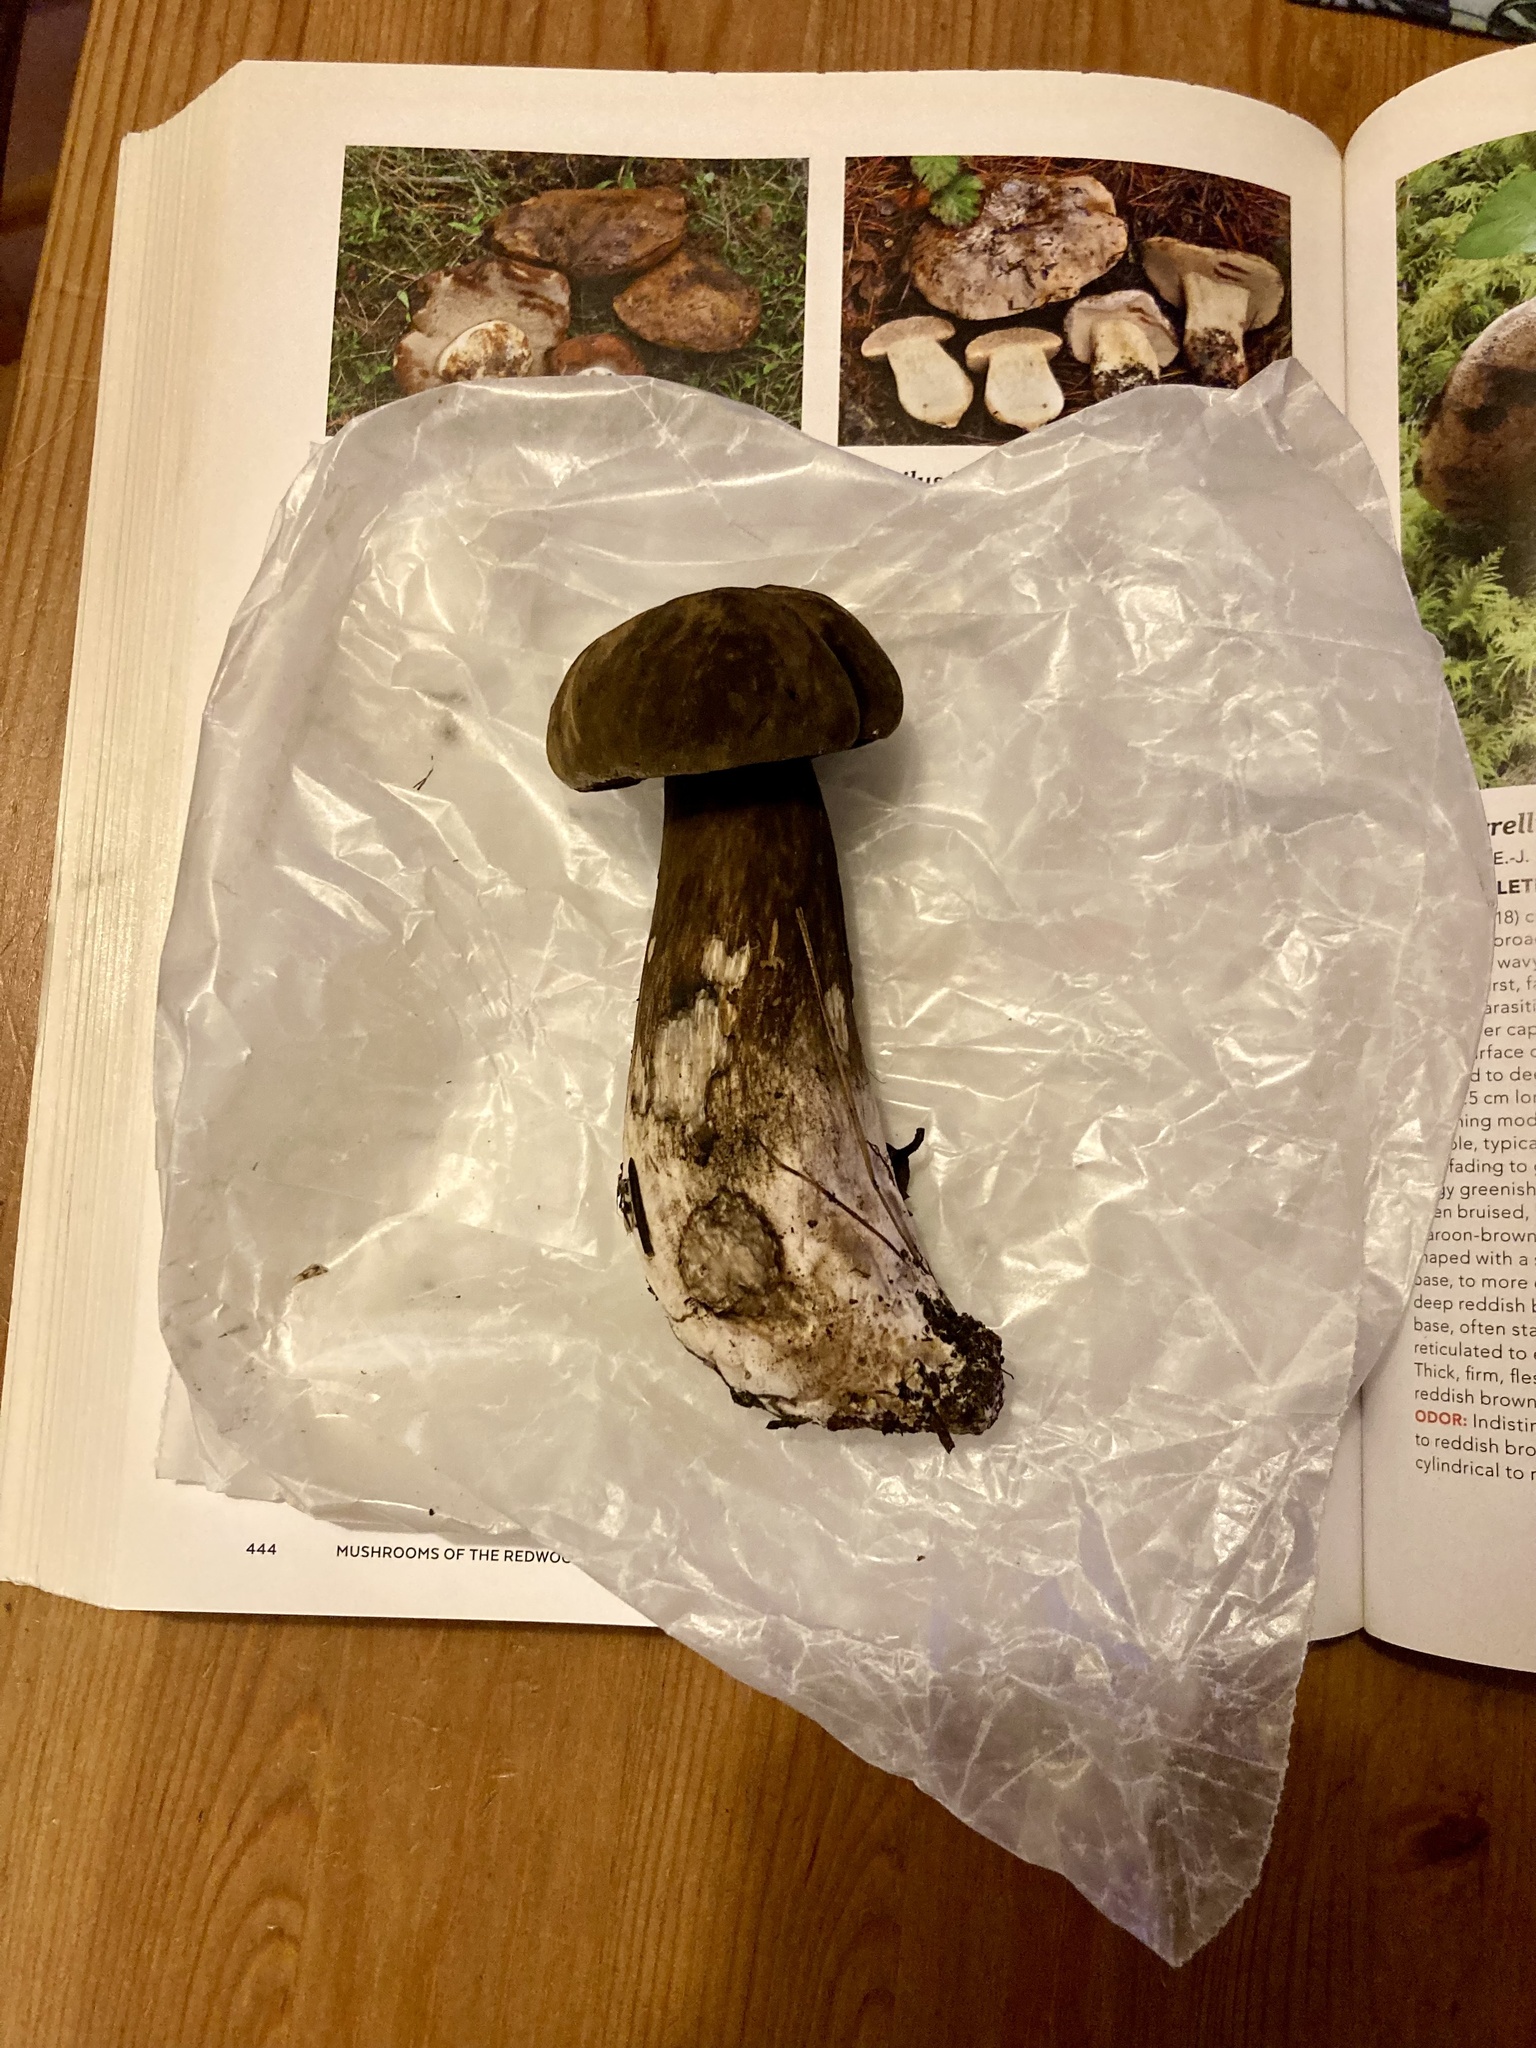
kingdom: Fungi
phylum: Basidiomycota
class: Agaricomycetes
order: Boletales
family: Boletaceae
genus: Porphyrellus
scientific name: Porphyrellus porphyrosporus
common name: Dusky bolete
